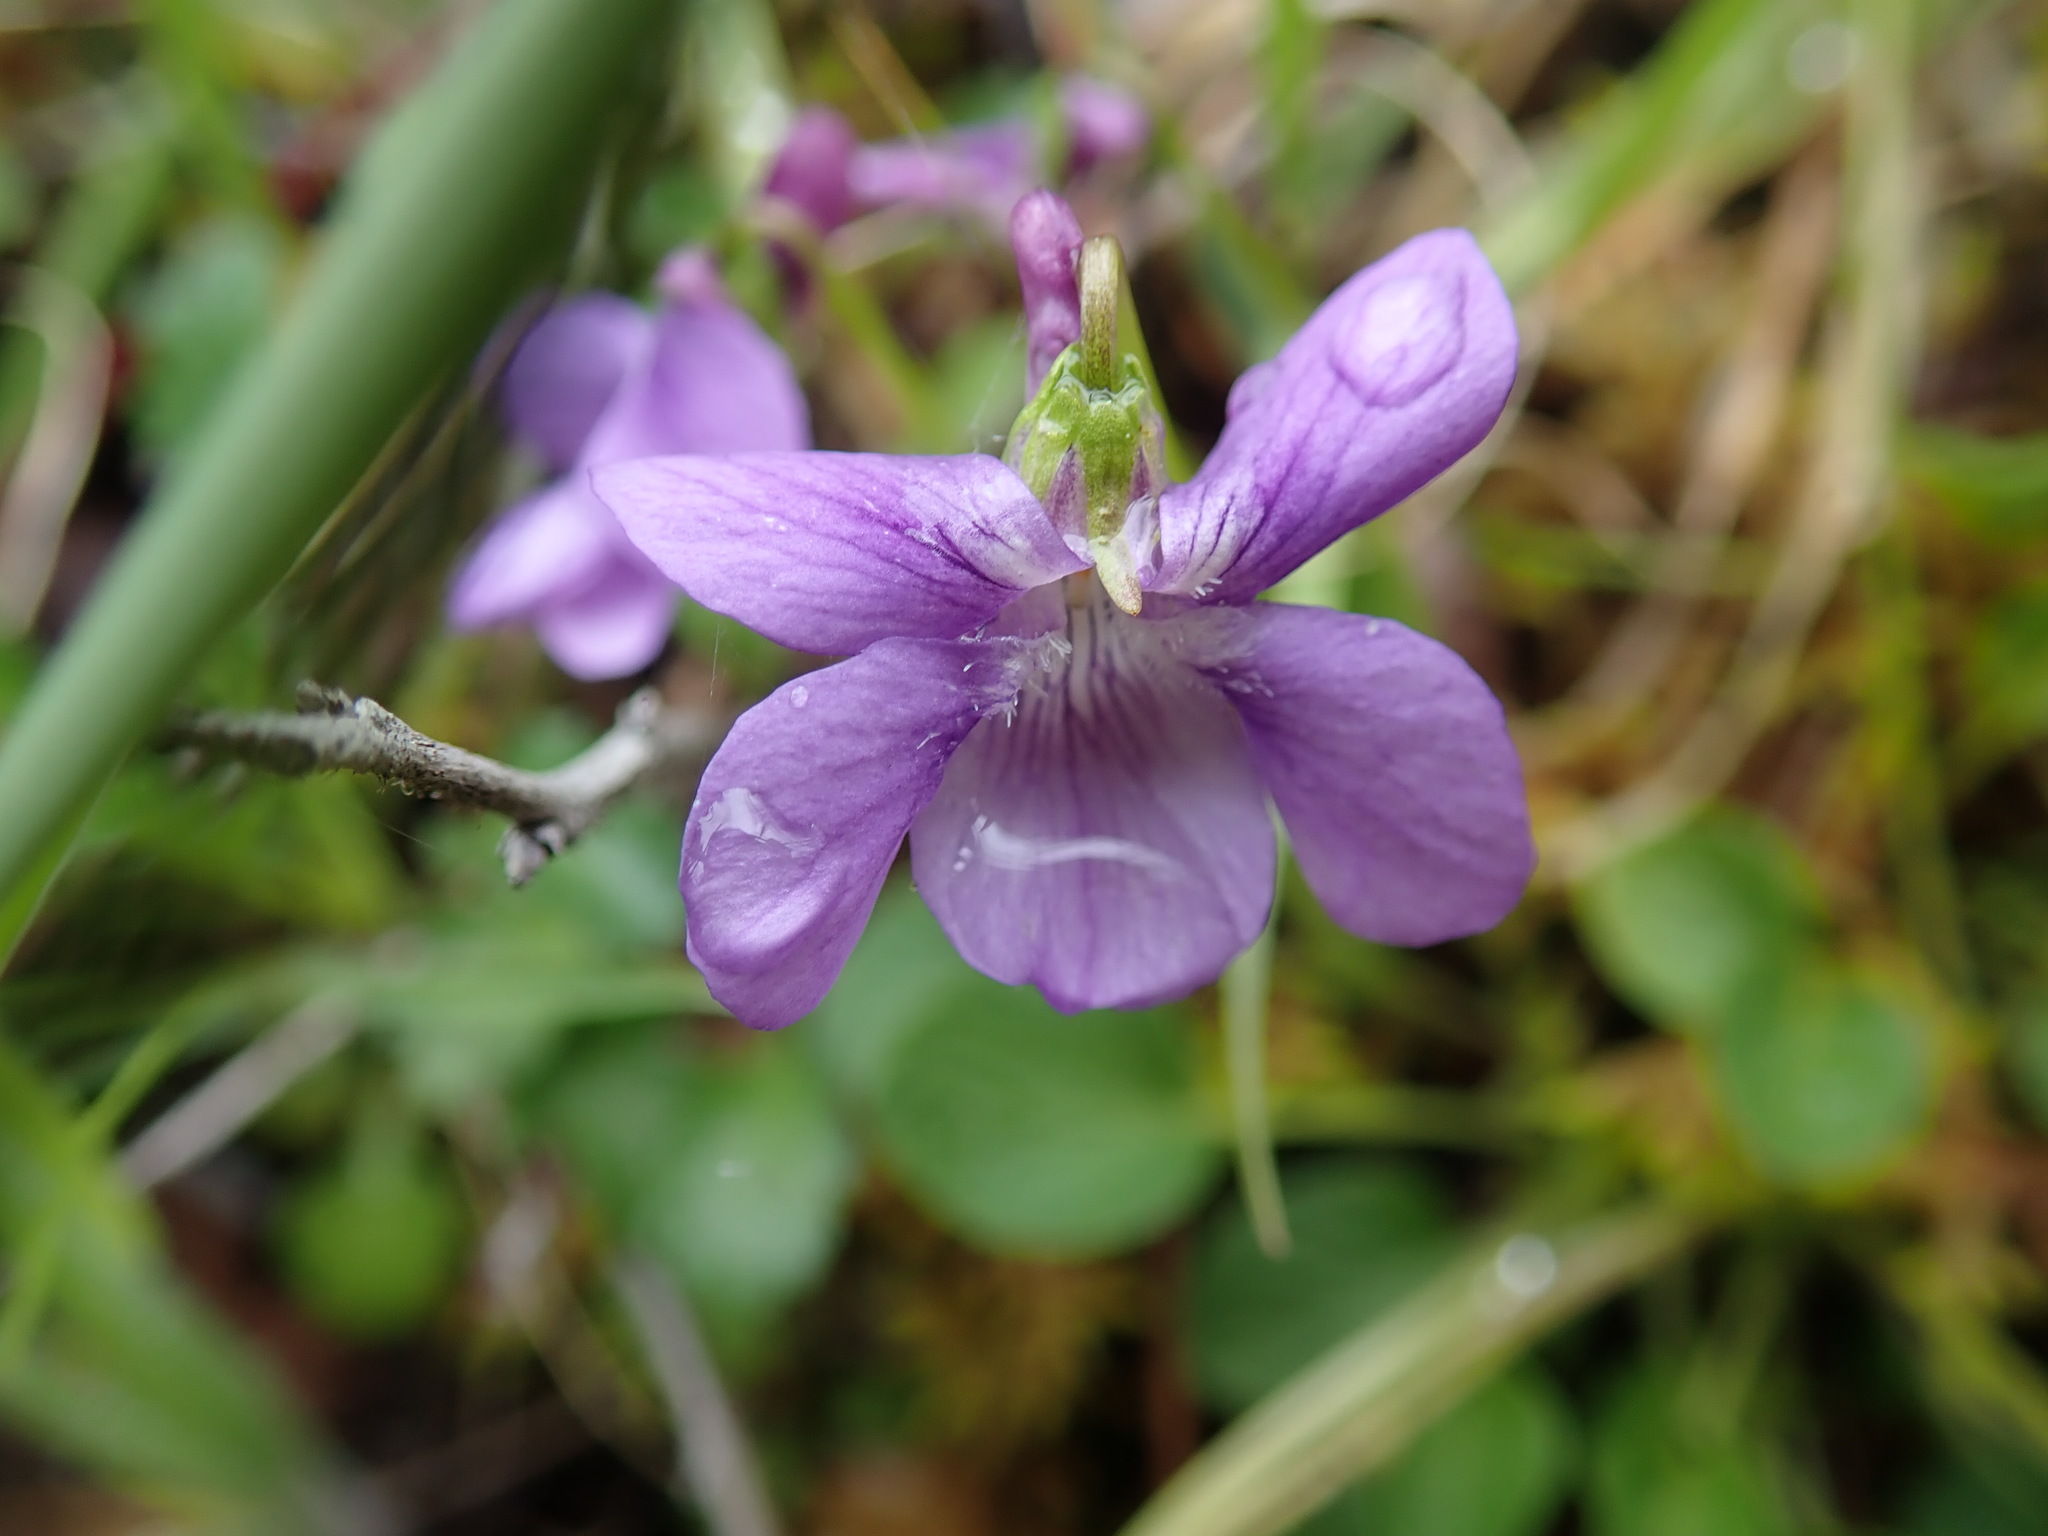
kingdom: Plantae
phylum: Tracheophyta
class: Magnoliopsida
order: Malpighiales
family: Violaceae
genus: Viola
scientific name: Viola adunca
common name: Sand violet
